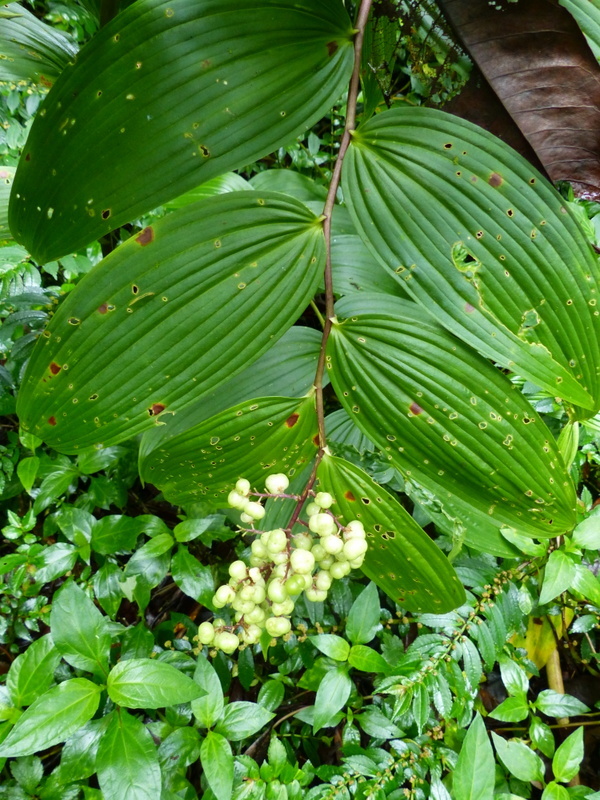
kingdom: Plantae
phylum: Tracheophyta
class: Liliopsida
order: Asparagales
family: Asparagaceae
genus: Maianthemum
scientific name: Maianthemum gigas
